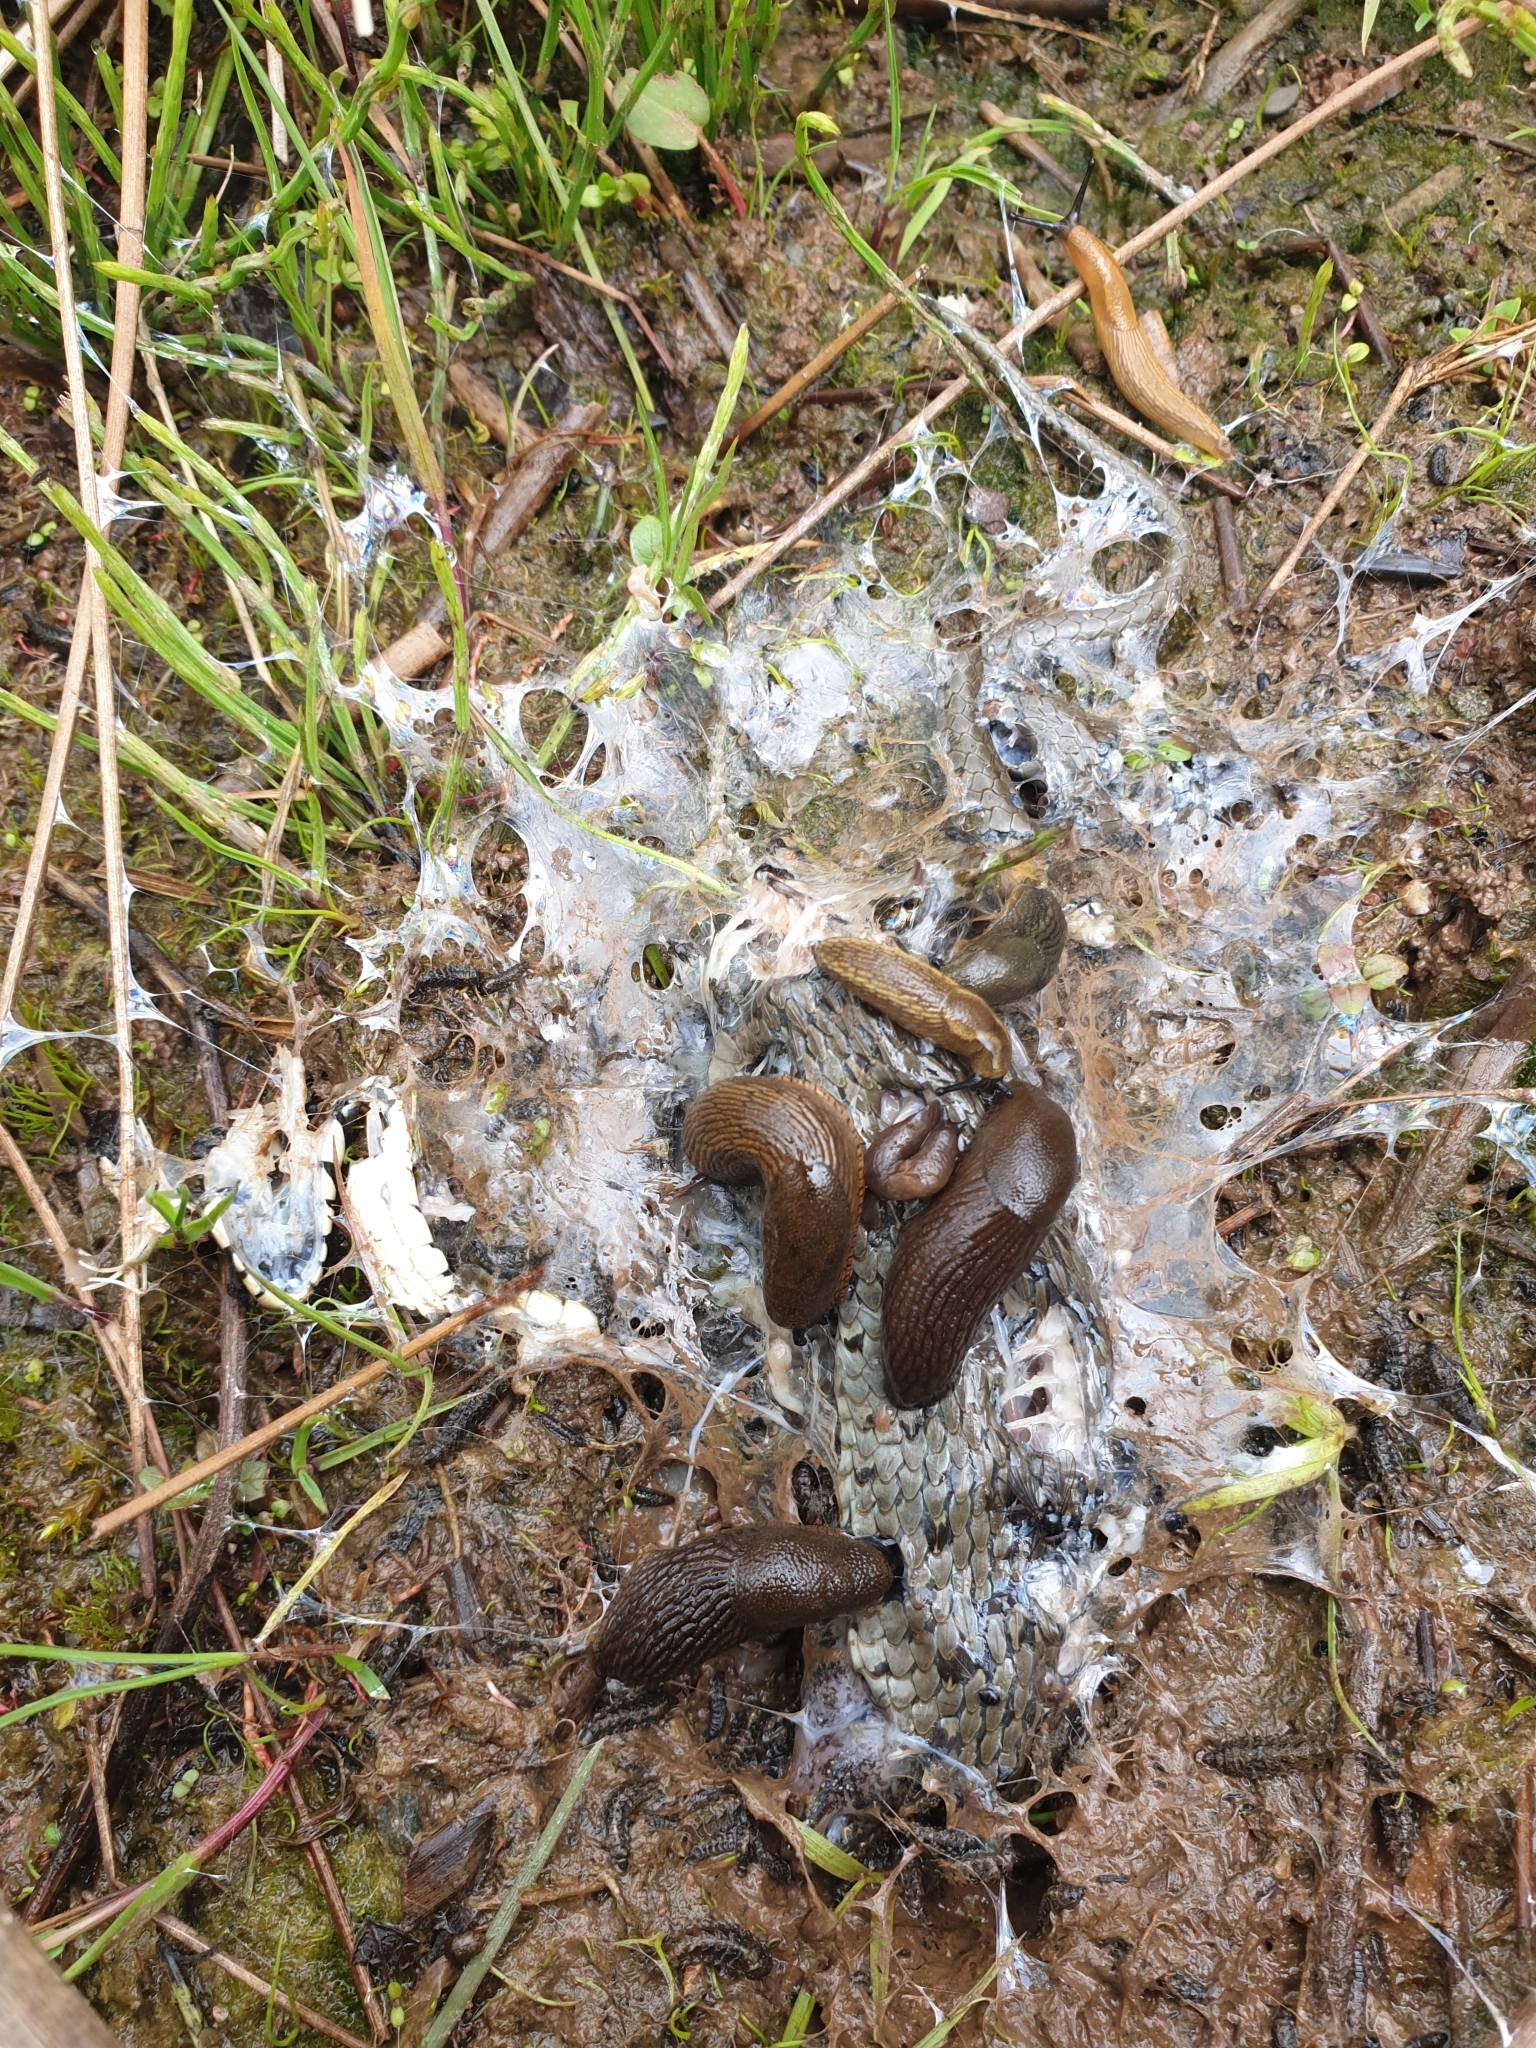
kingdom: Animalia
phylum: Chordata
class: Squamata
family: Colubridae
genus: Natrix
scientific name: Natrix natrix
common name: Grass snake
